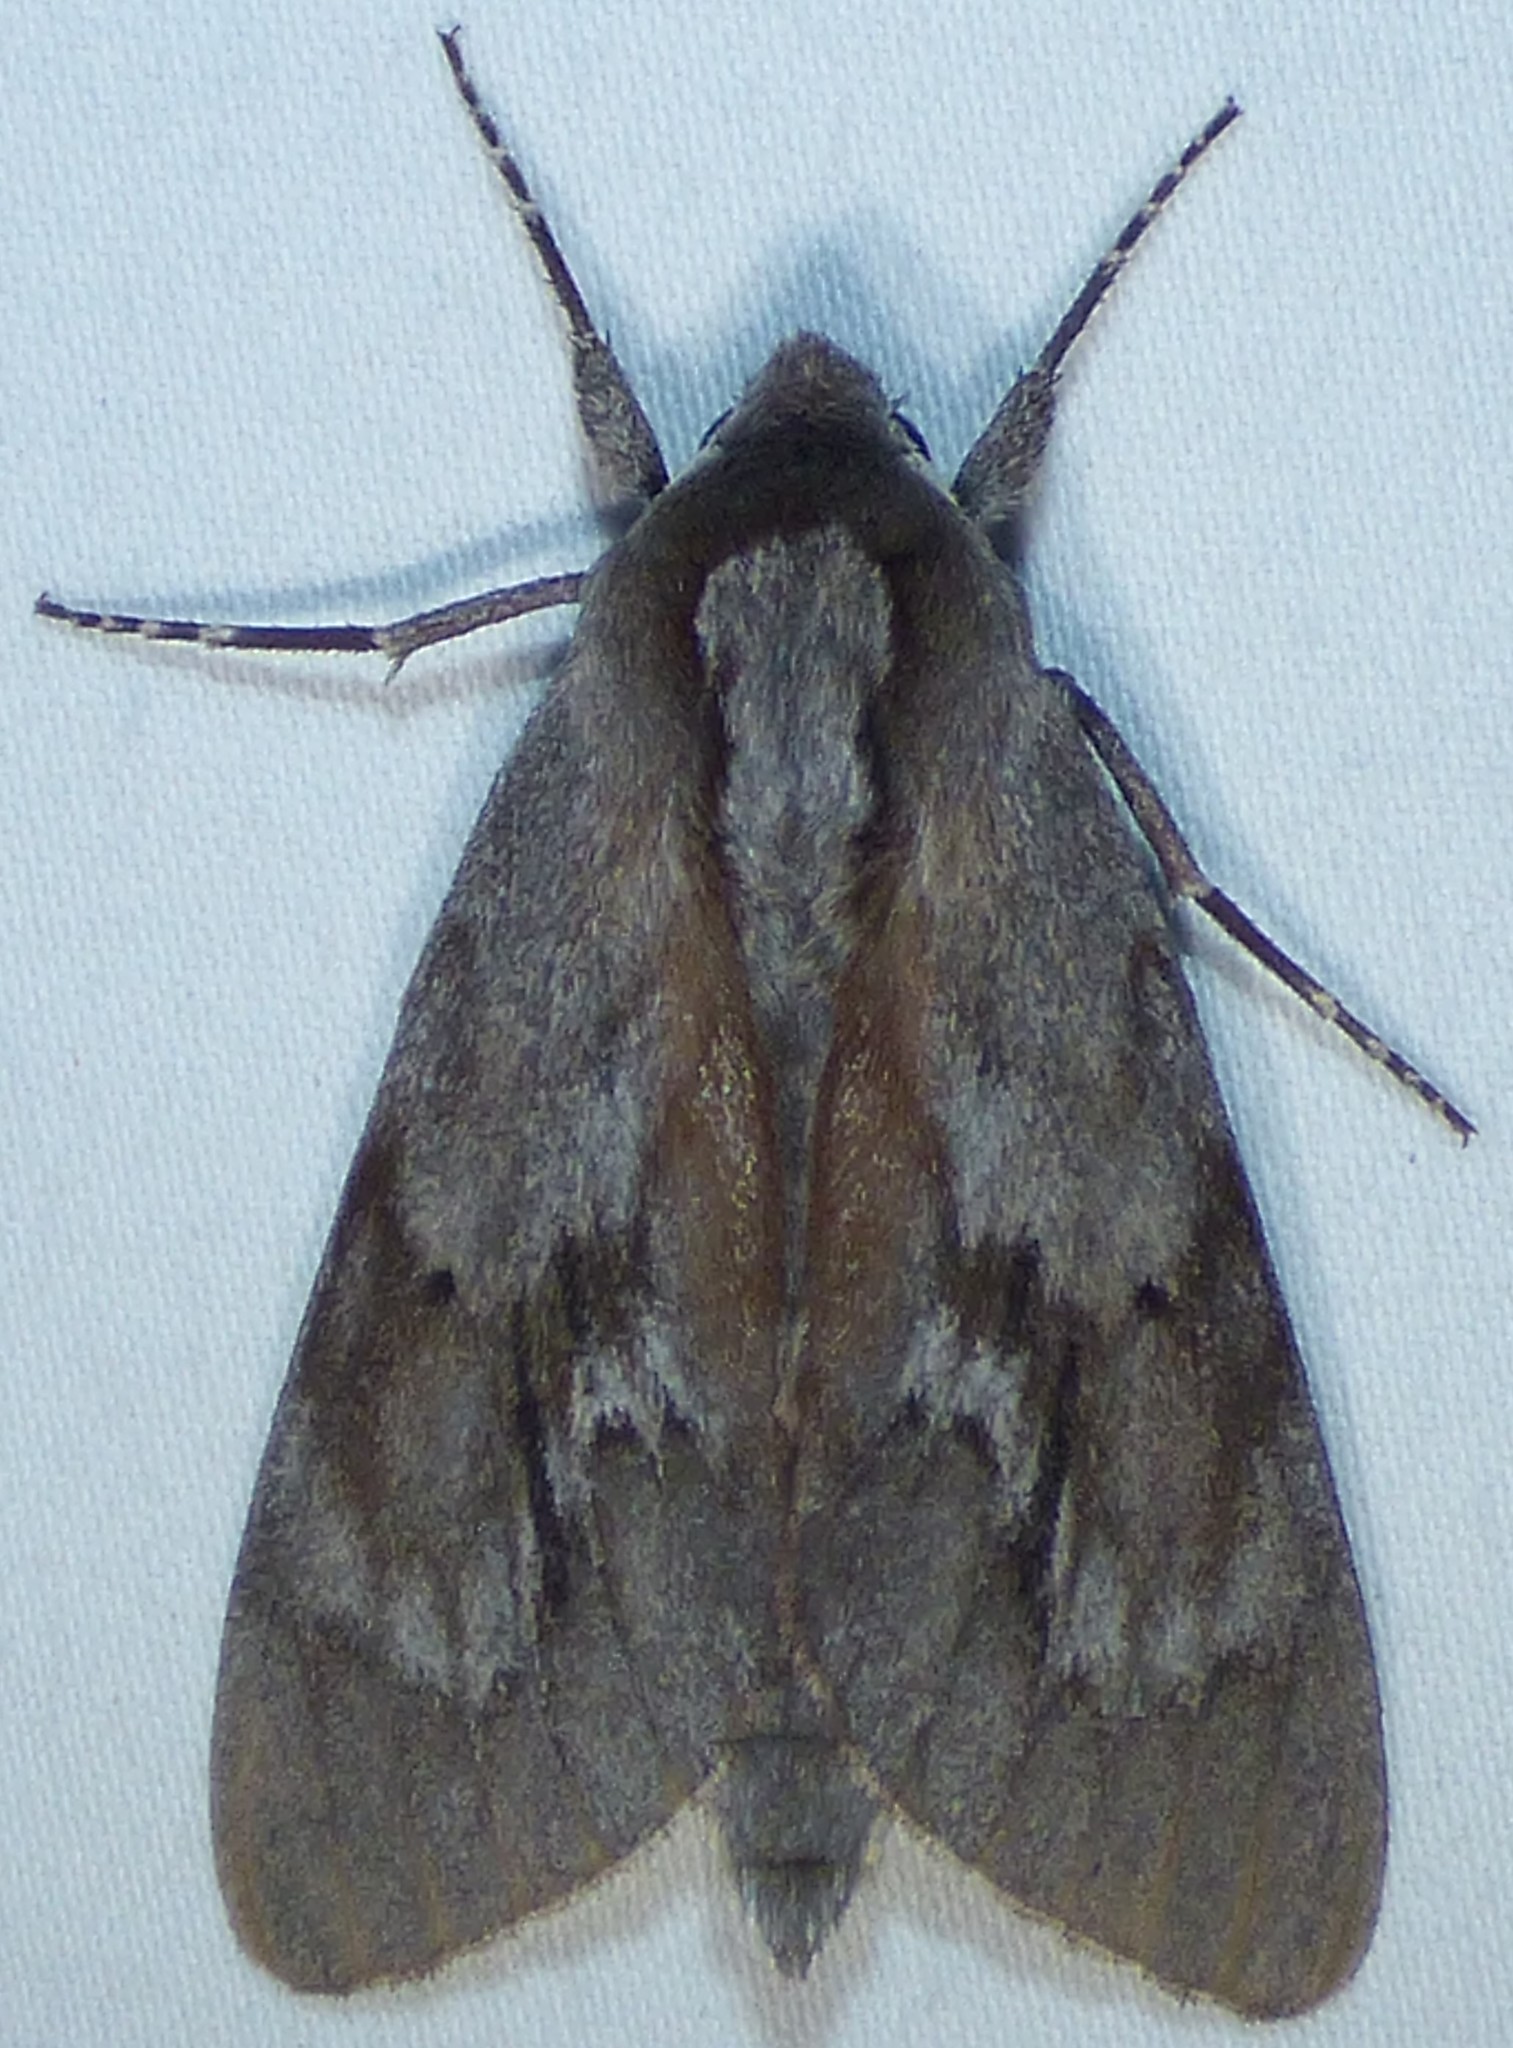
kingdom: Animalia
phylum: Arthropoda
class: Insecta
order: Lepidoptera
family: Sphingidae
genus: Lapara
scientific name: Lapara coniferarum
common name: Southern pine sphinx
